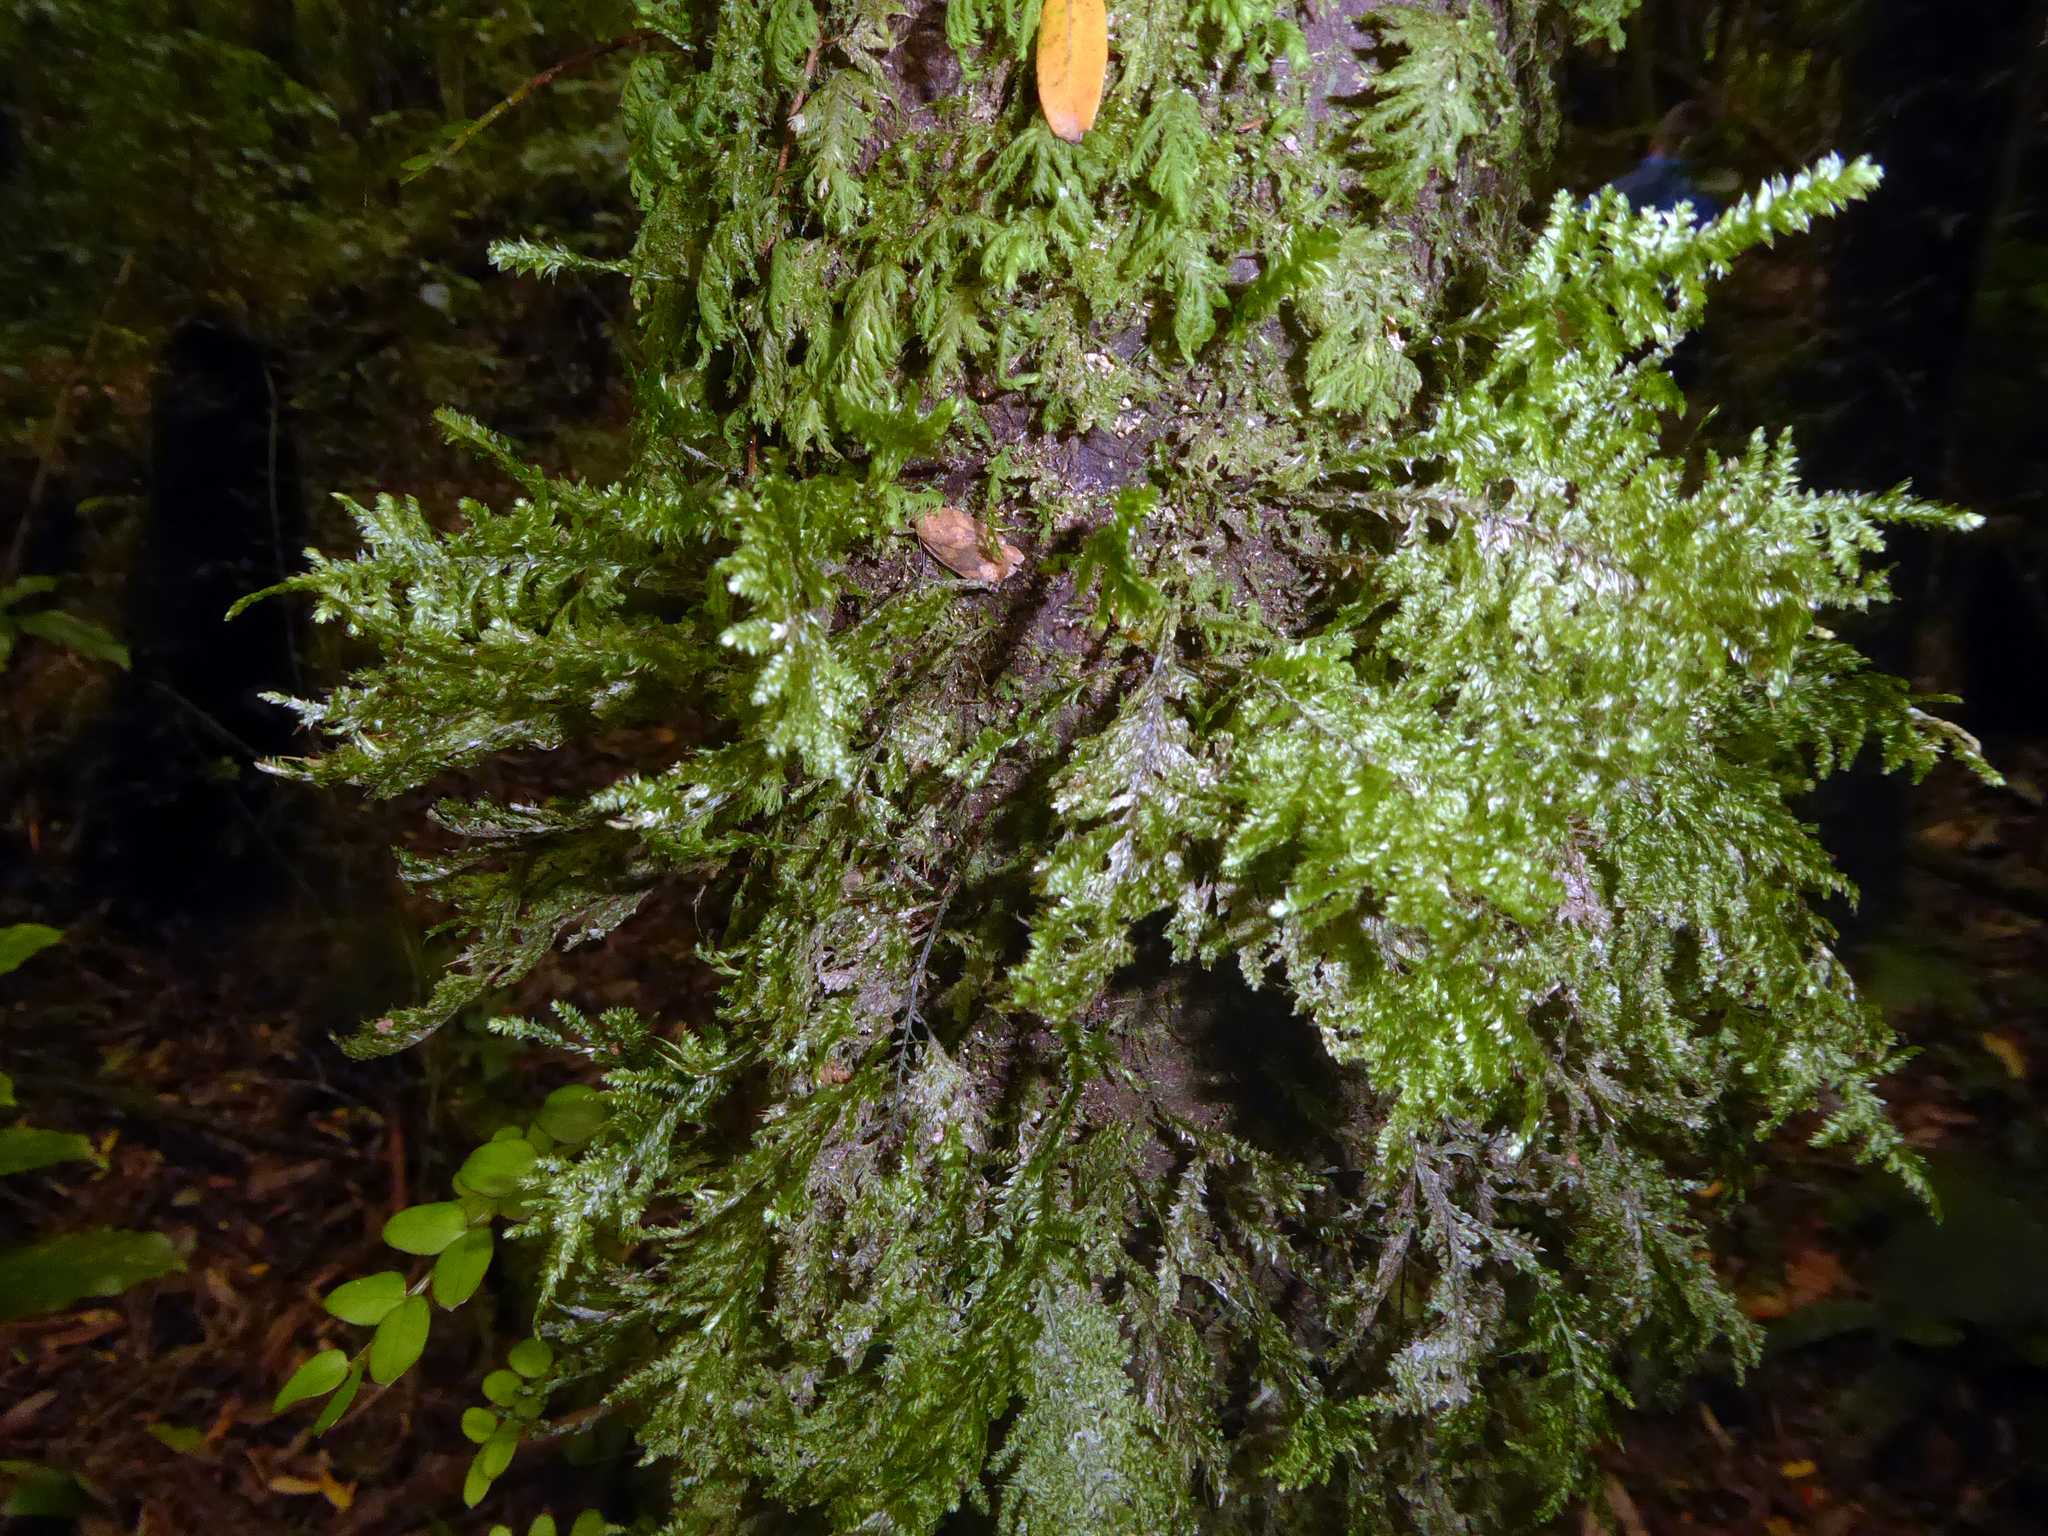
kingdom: Plantae
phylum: Bryophyta
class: Bryopsida
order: Hypnales
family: Trachylomataceae
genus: Trachyloma
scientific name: Trachyloma diversinerve
